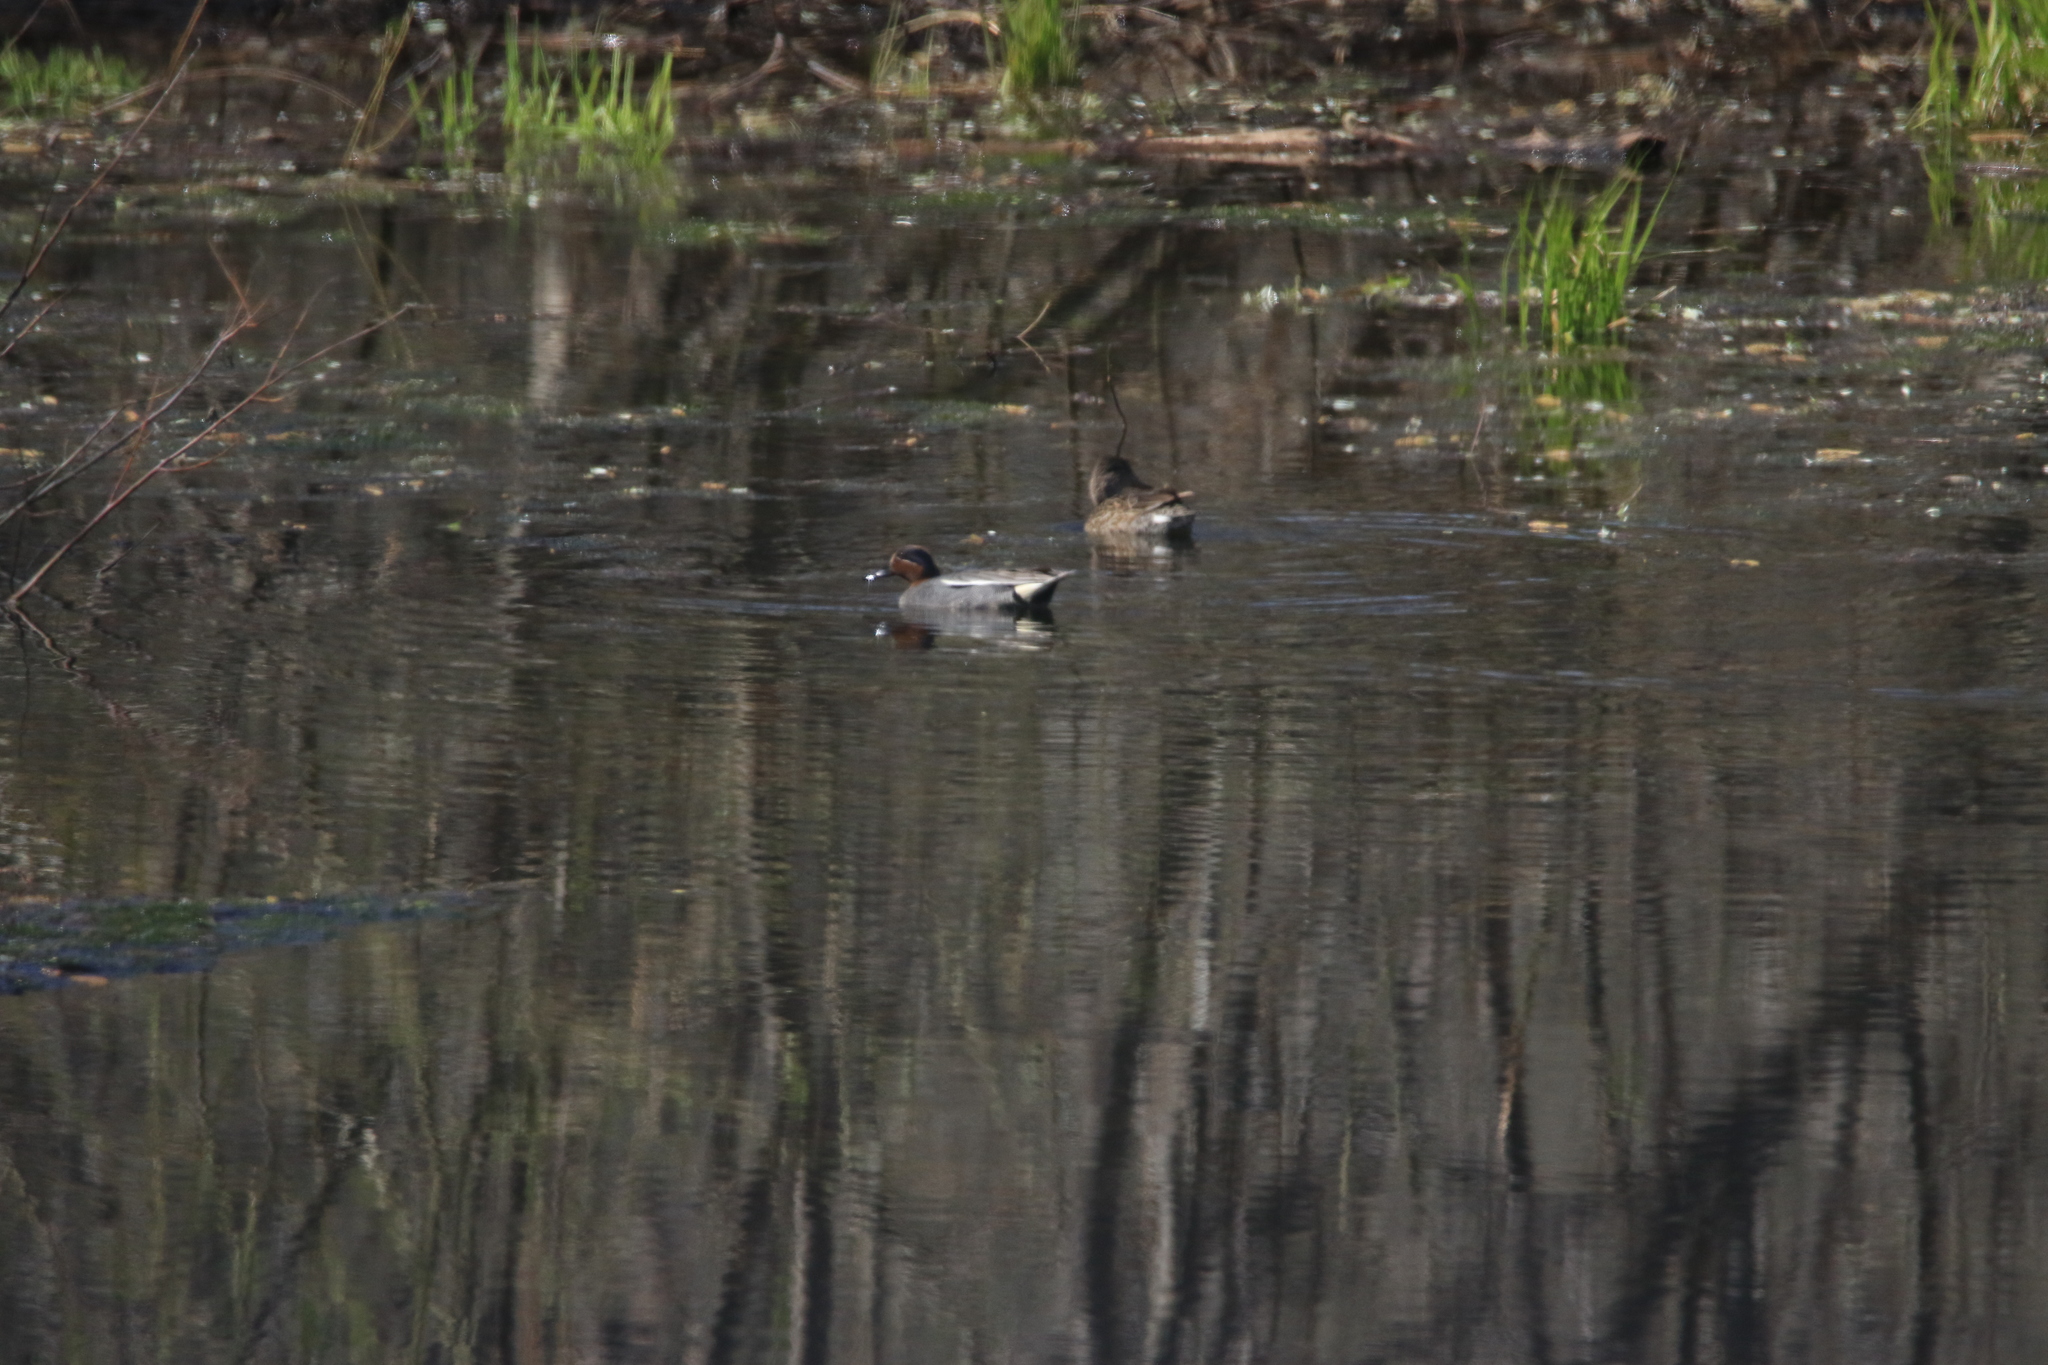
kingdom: Animalia
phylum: Chordata
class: Aves
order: Anseriformes
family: Anatidae
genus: Anas
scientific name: Anas crecca
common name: Eurasian teal
